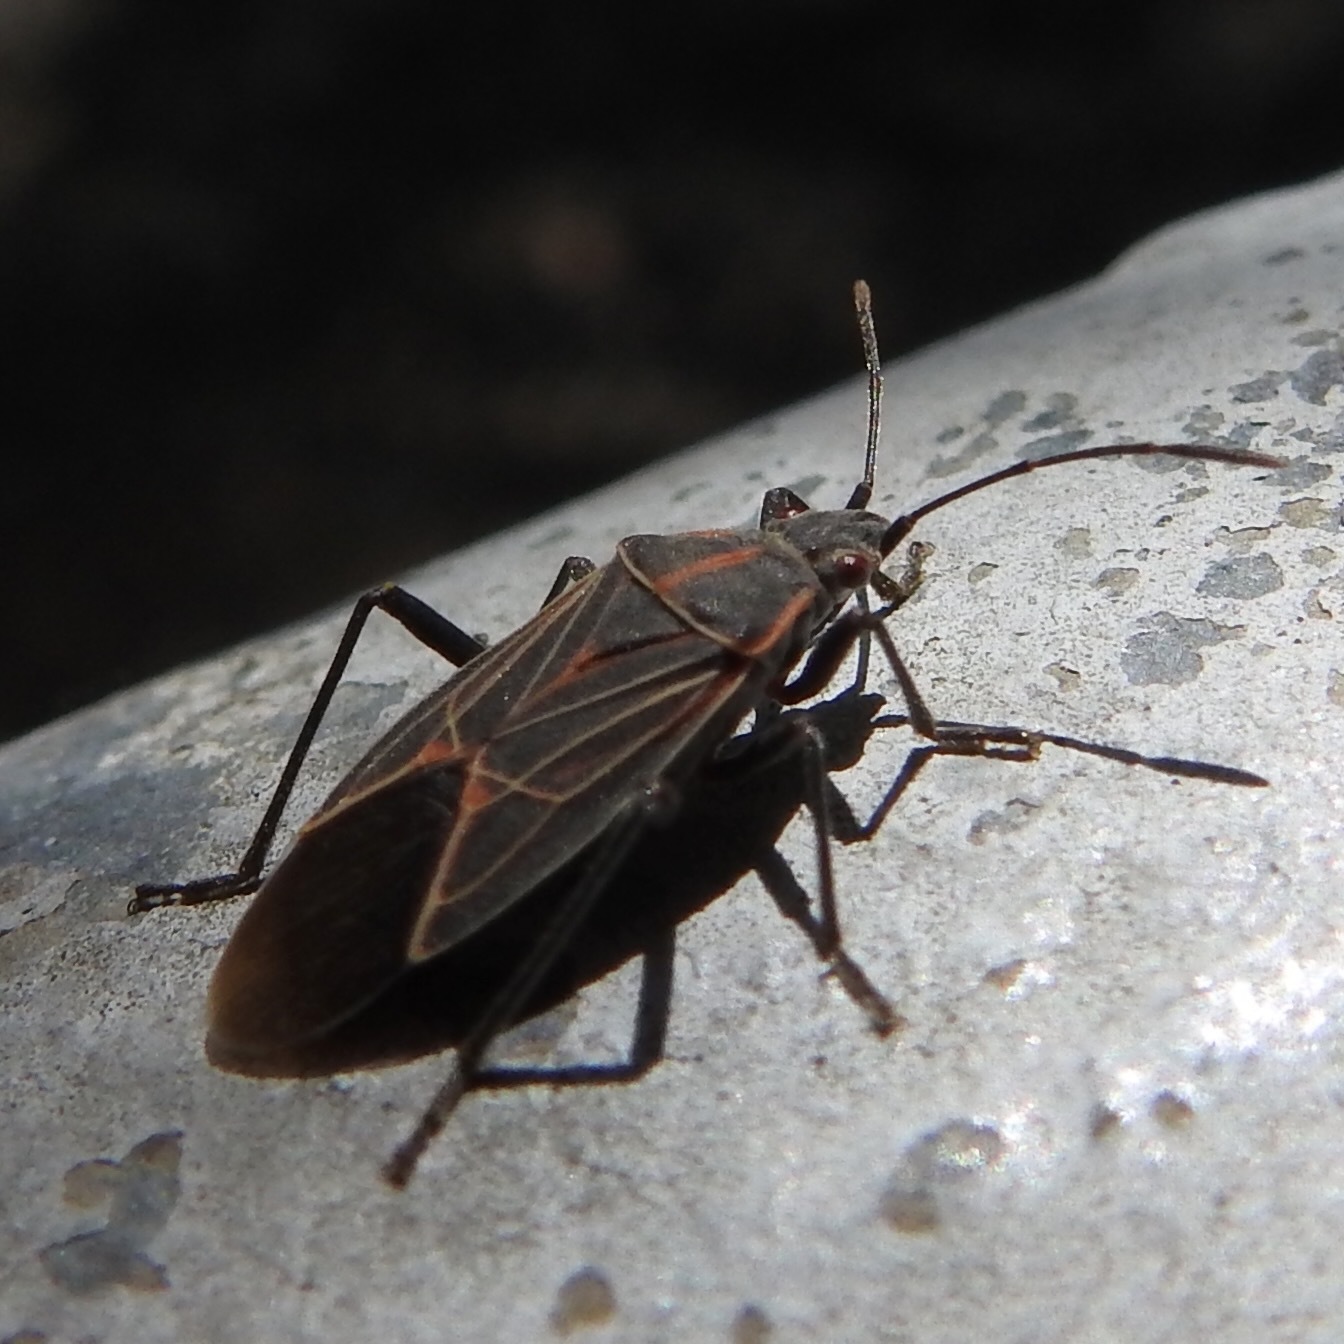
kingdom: Animalia
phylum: Arthropoda
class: Insecta
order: Hemiptera
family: Rhopalidae
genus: Boisea
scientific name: Boisea rubrolineata
